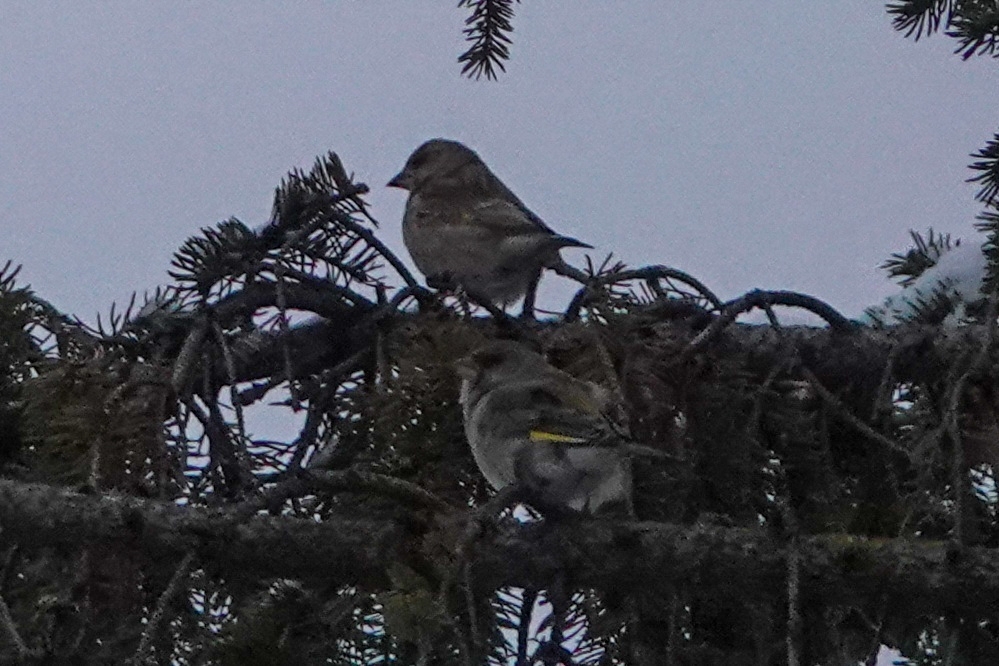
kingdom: Plantae
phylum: Tracheophyta
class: Liliopsida
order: Poales
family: Poaceae
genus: Chloris
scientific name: Chloris chloris
